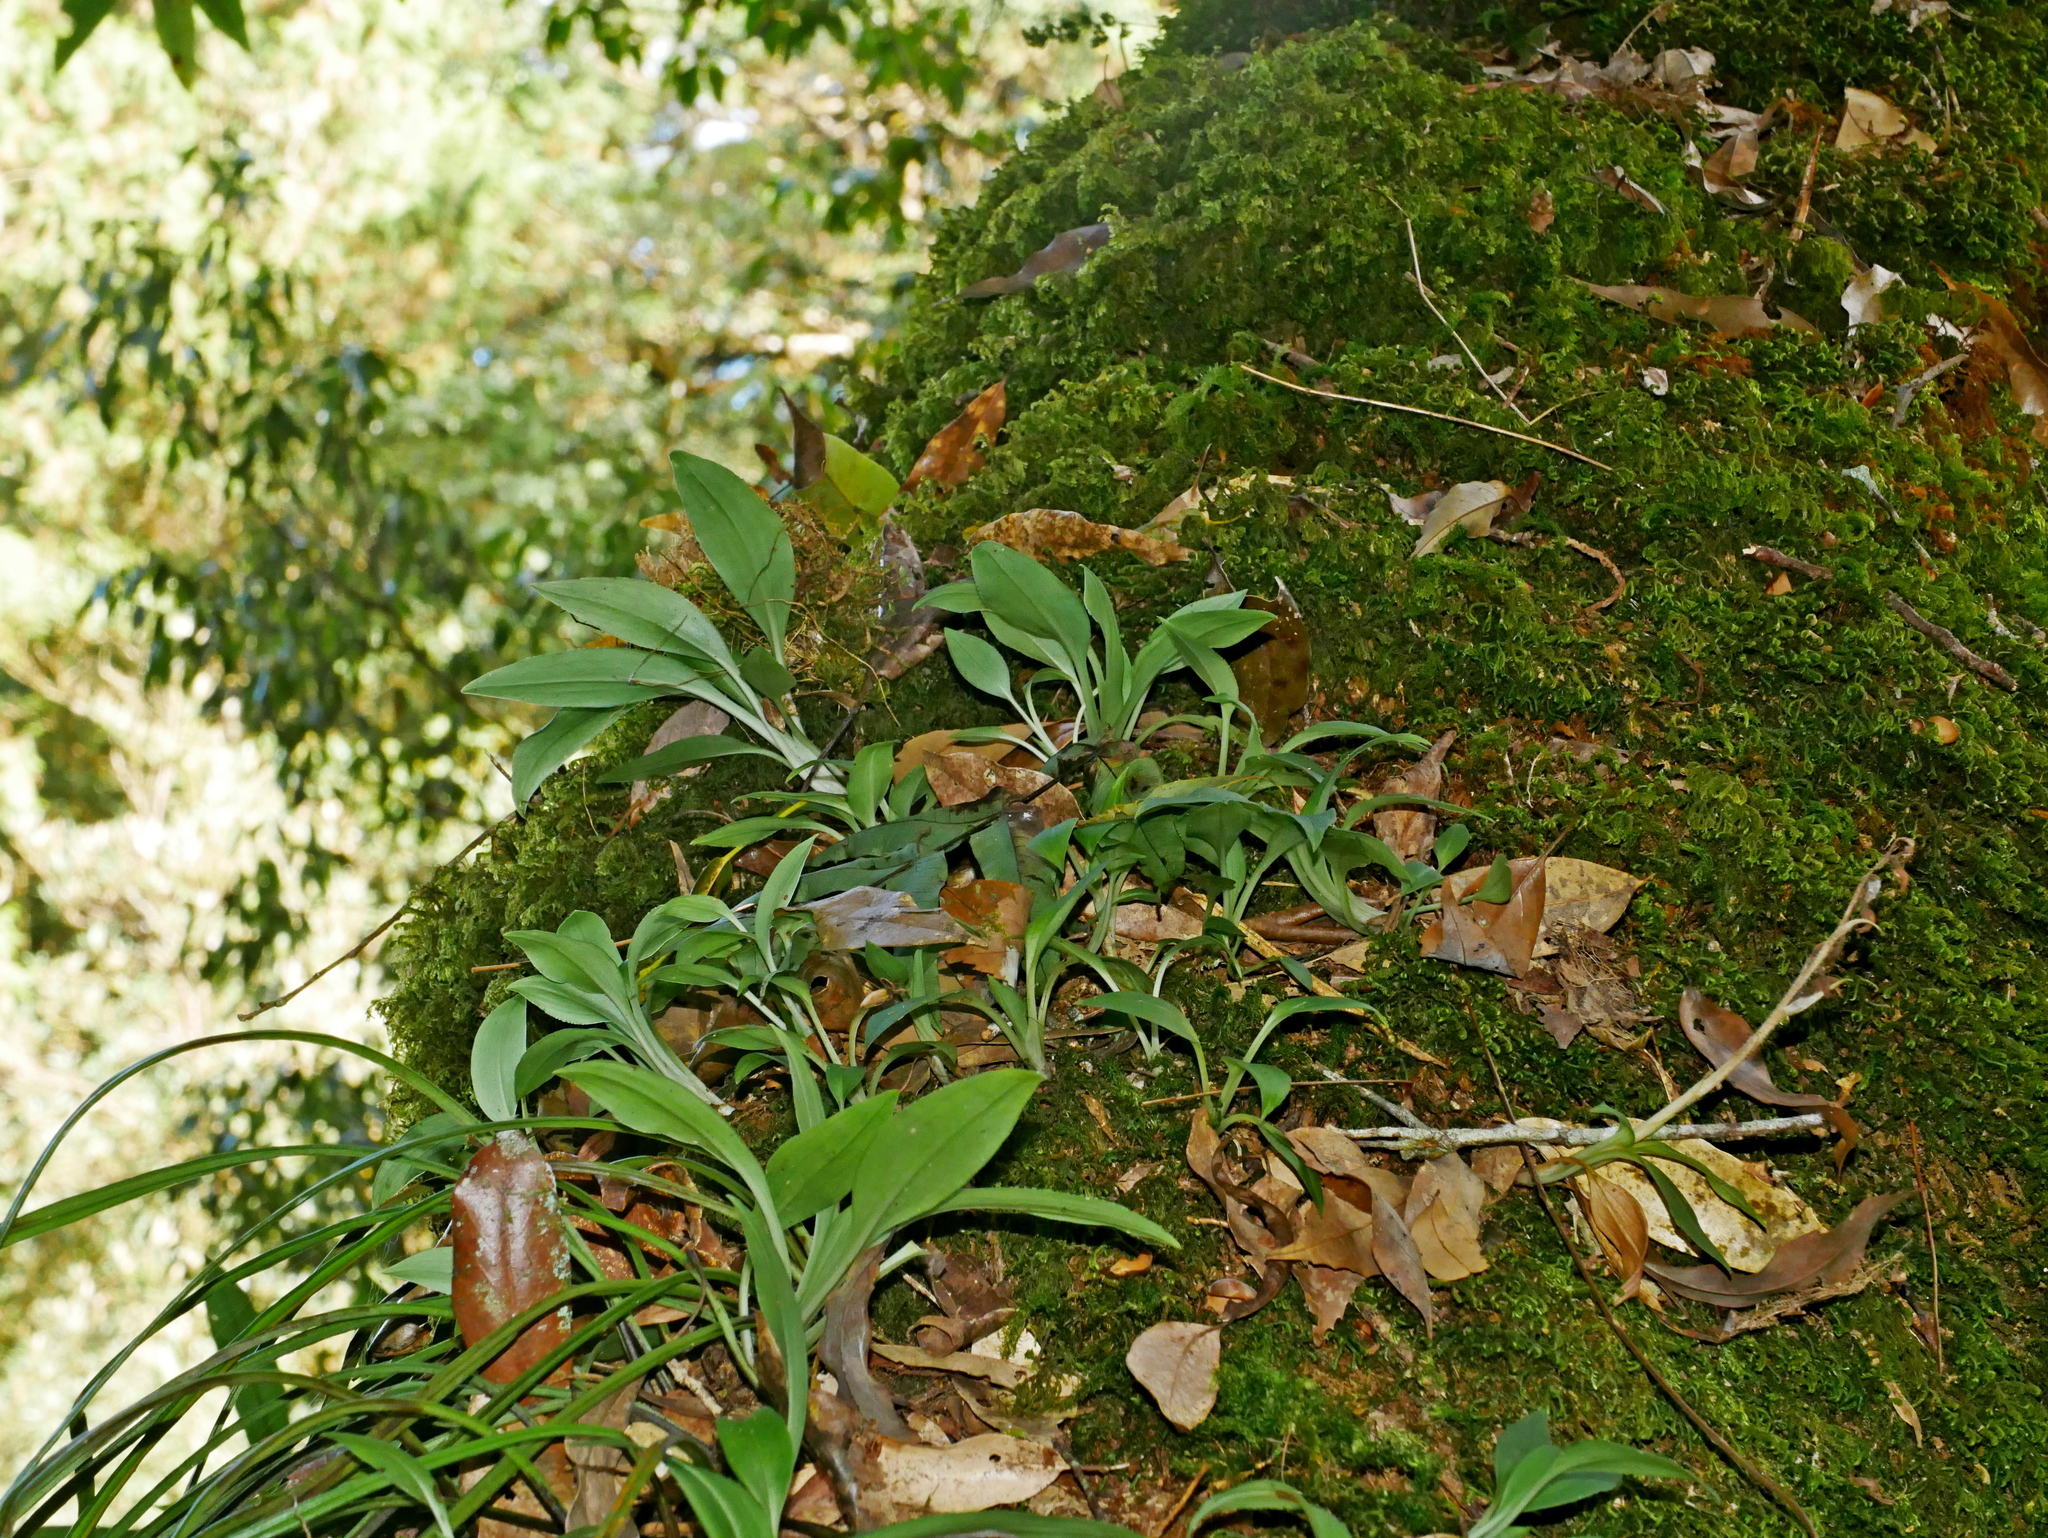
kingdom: Plantae
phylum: Tracheophyta
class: Liliopsida
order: Asparagales
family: Orchidaceae
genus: Goodyera
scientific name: Goodyera robusta
